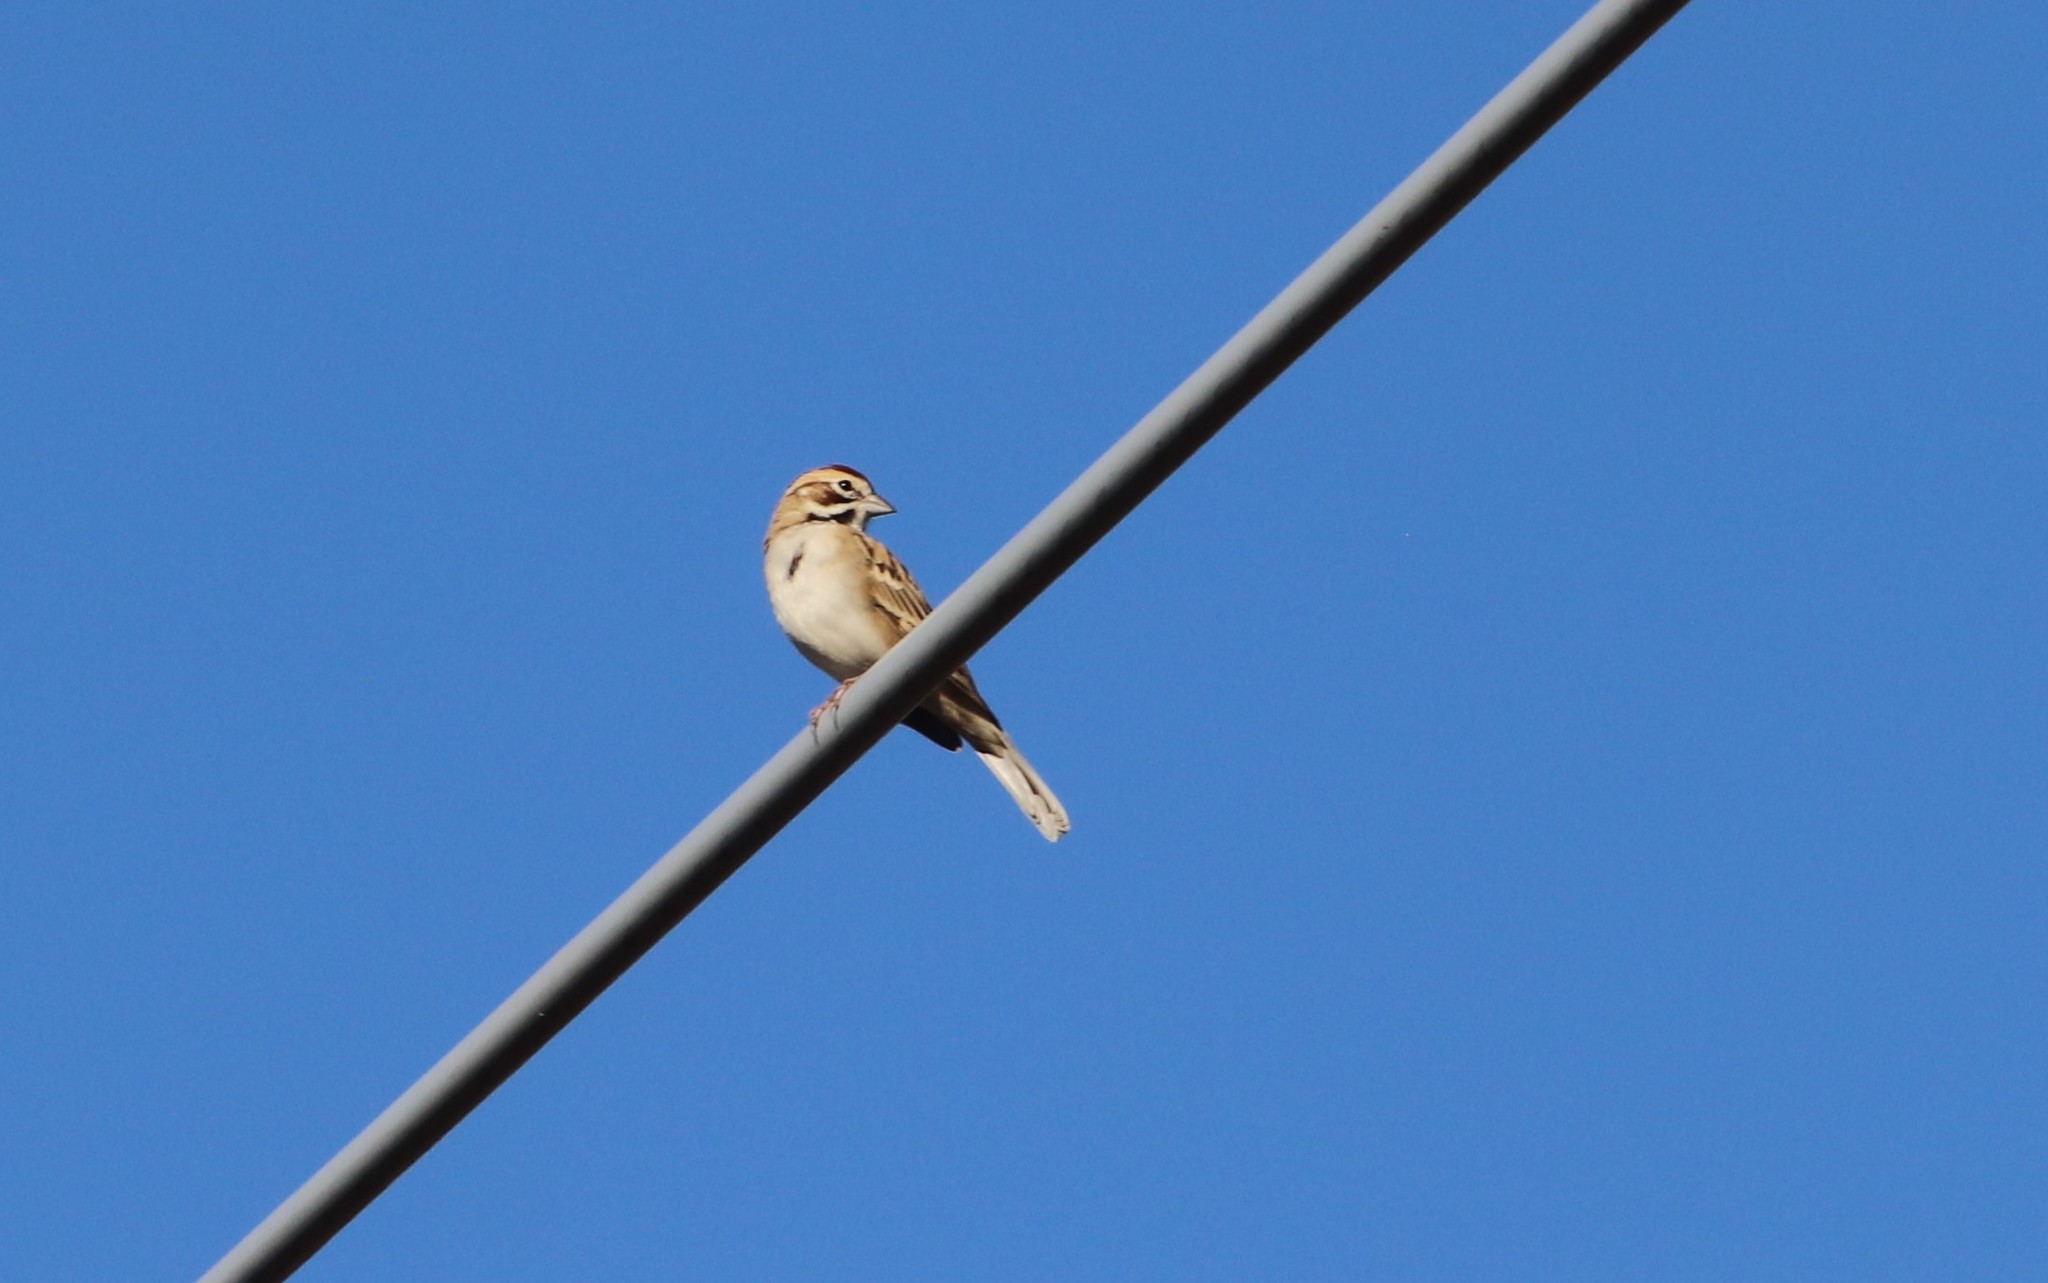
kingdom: Animalia
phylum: Chordata
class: Aves
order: Passeriformes
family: Passerellidae
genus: Chondestes
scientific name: Chondestes grammacus
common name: Lark sparrow
